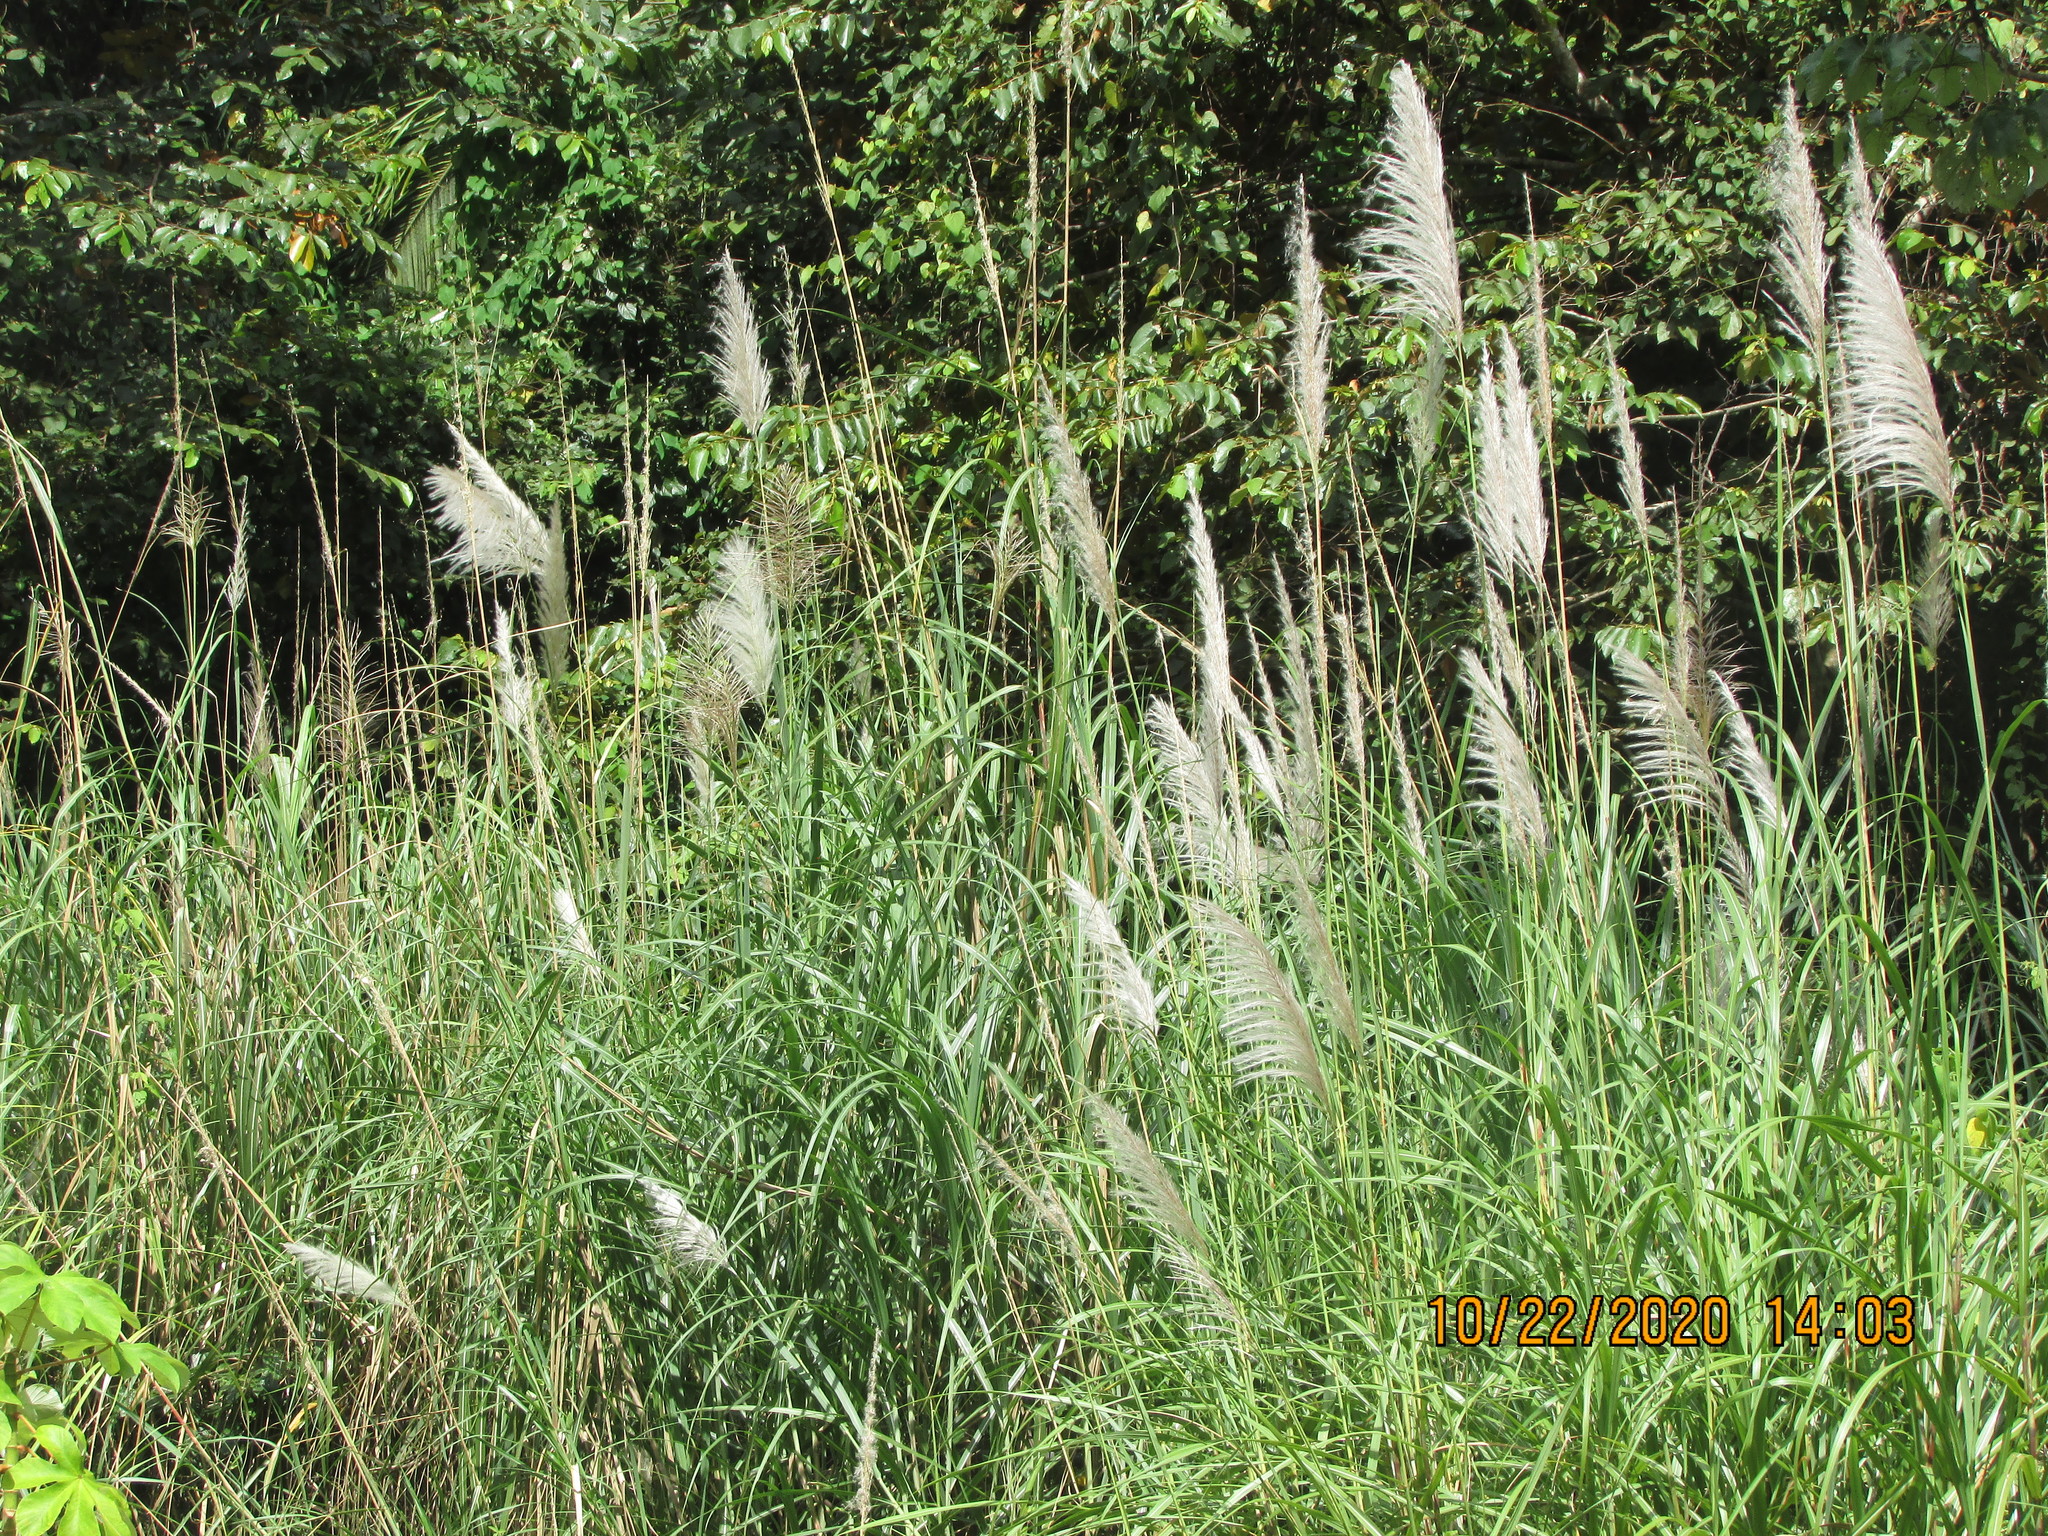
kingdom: Plantae
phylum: Tracheophyta
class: Liliopsida
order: Poales
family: Poaceae
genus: Saccharum
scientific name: Saccharum spontaneum
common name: Wild sugarcane
